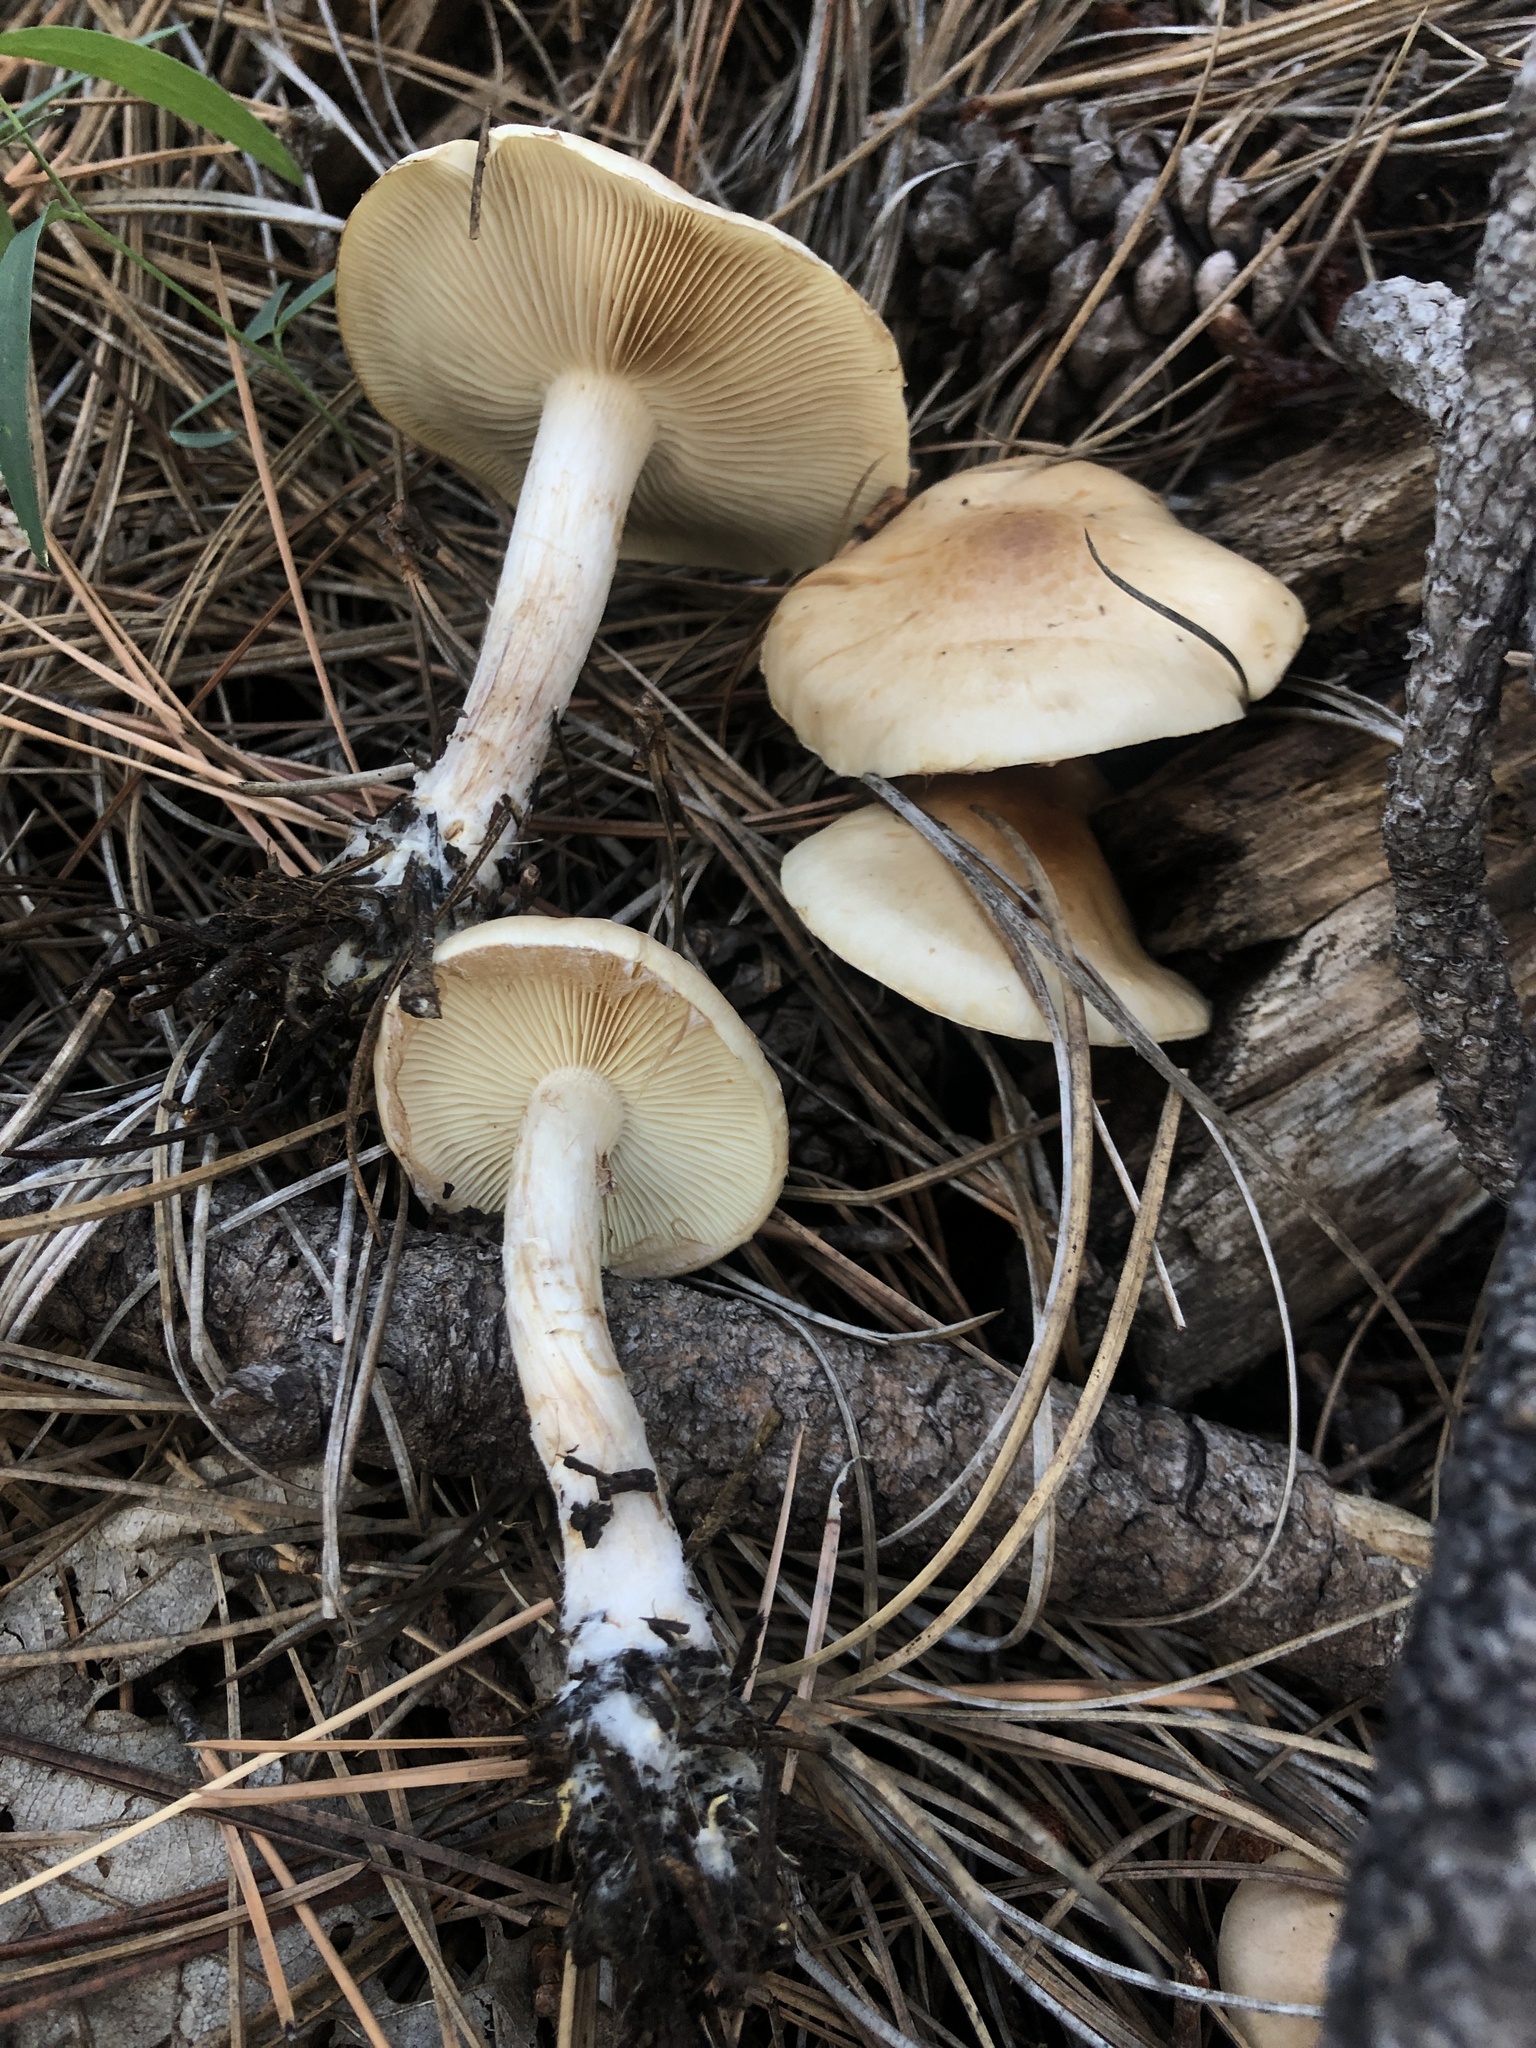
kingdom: Fungi
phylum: Basidiomycota
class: Agaricomycetes
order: Agaricales
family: Strophariaceae
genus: Pholiota
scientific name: Pholiota lenta
